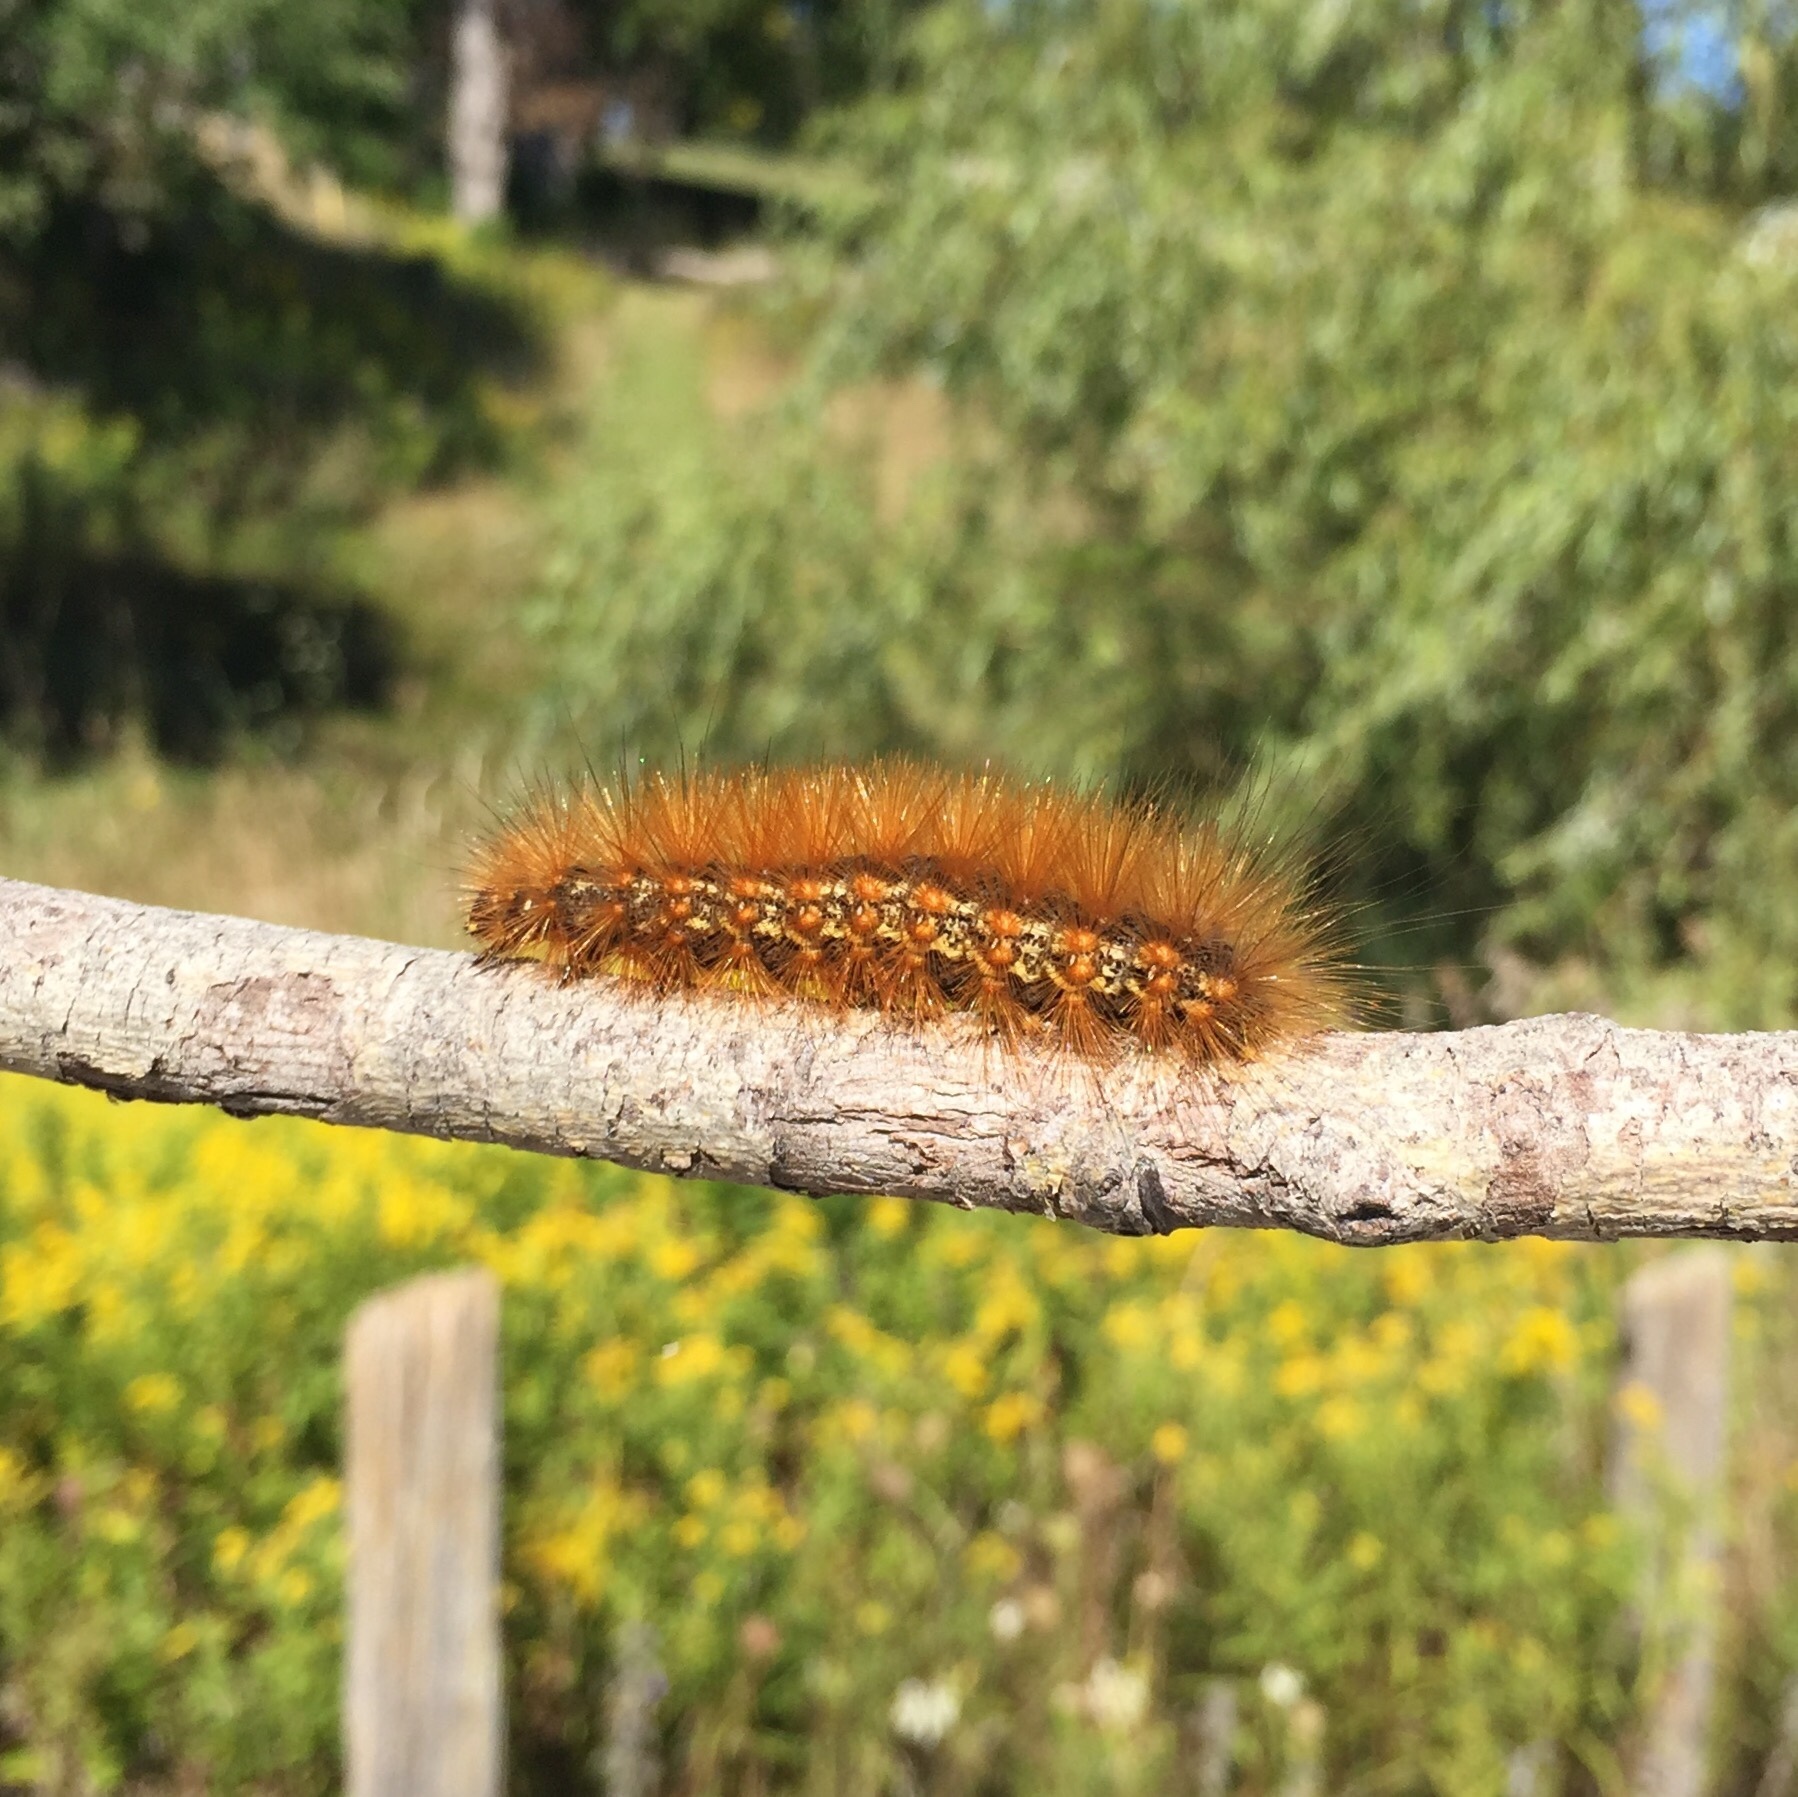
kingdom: Animalia
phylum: Arthropoda
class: Insecta
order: Lepidoptera
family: Erebidae
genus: Estigmene
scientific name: Estigmene acrea
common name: Salt marsh moth
